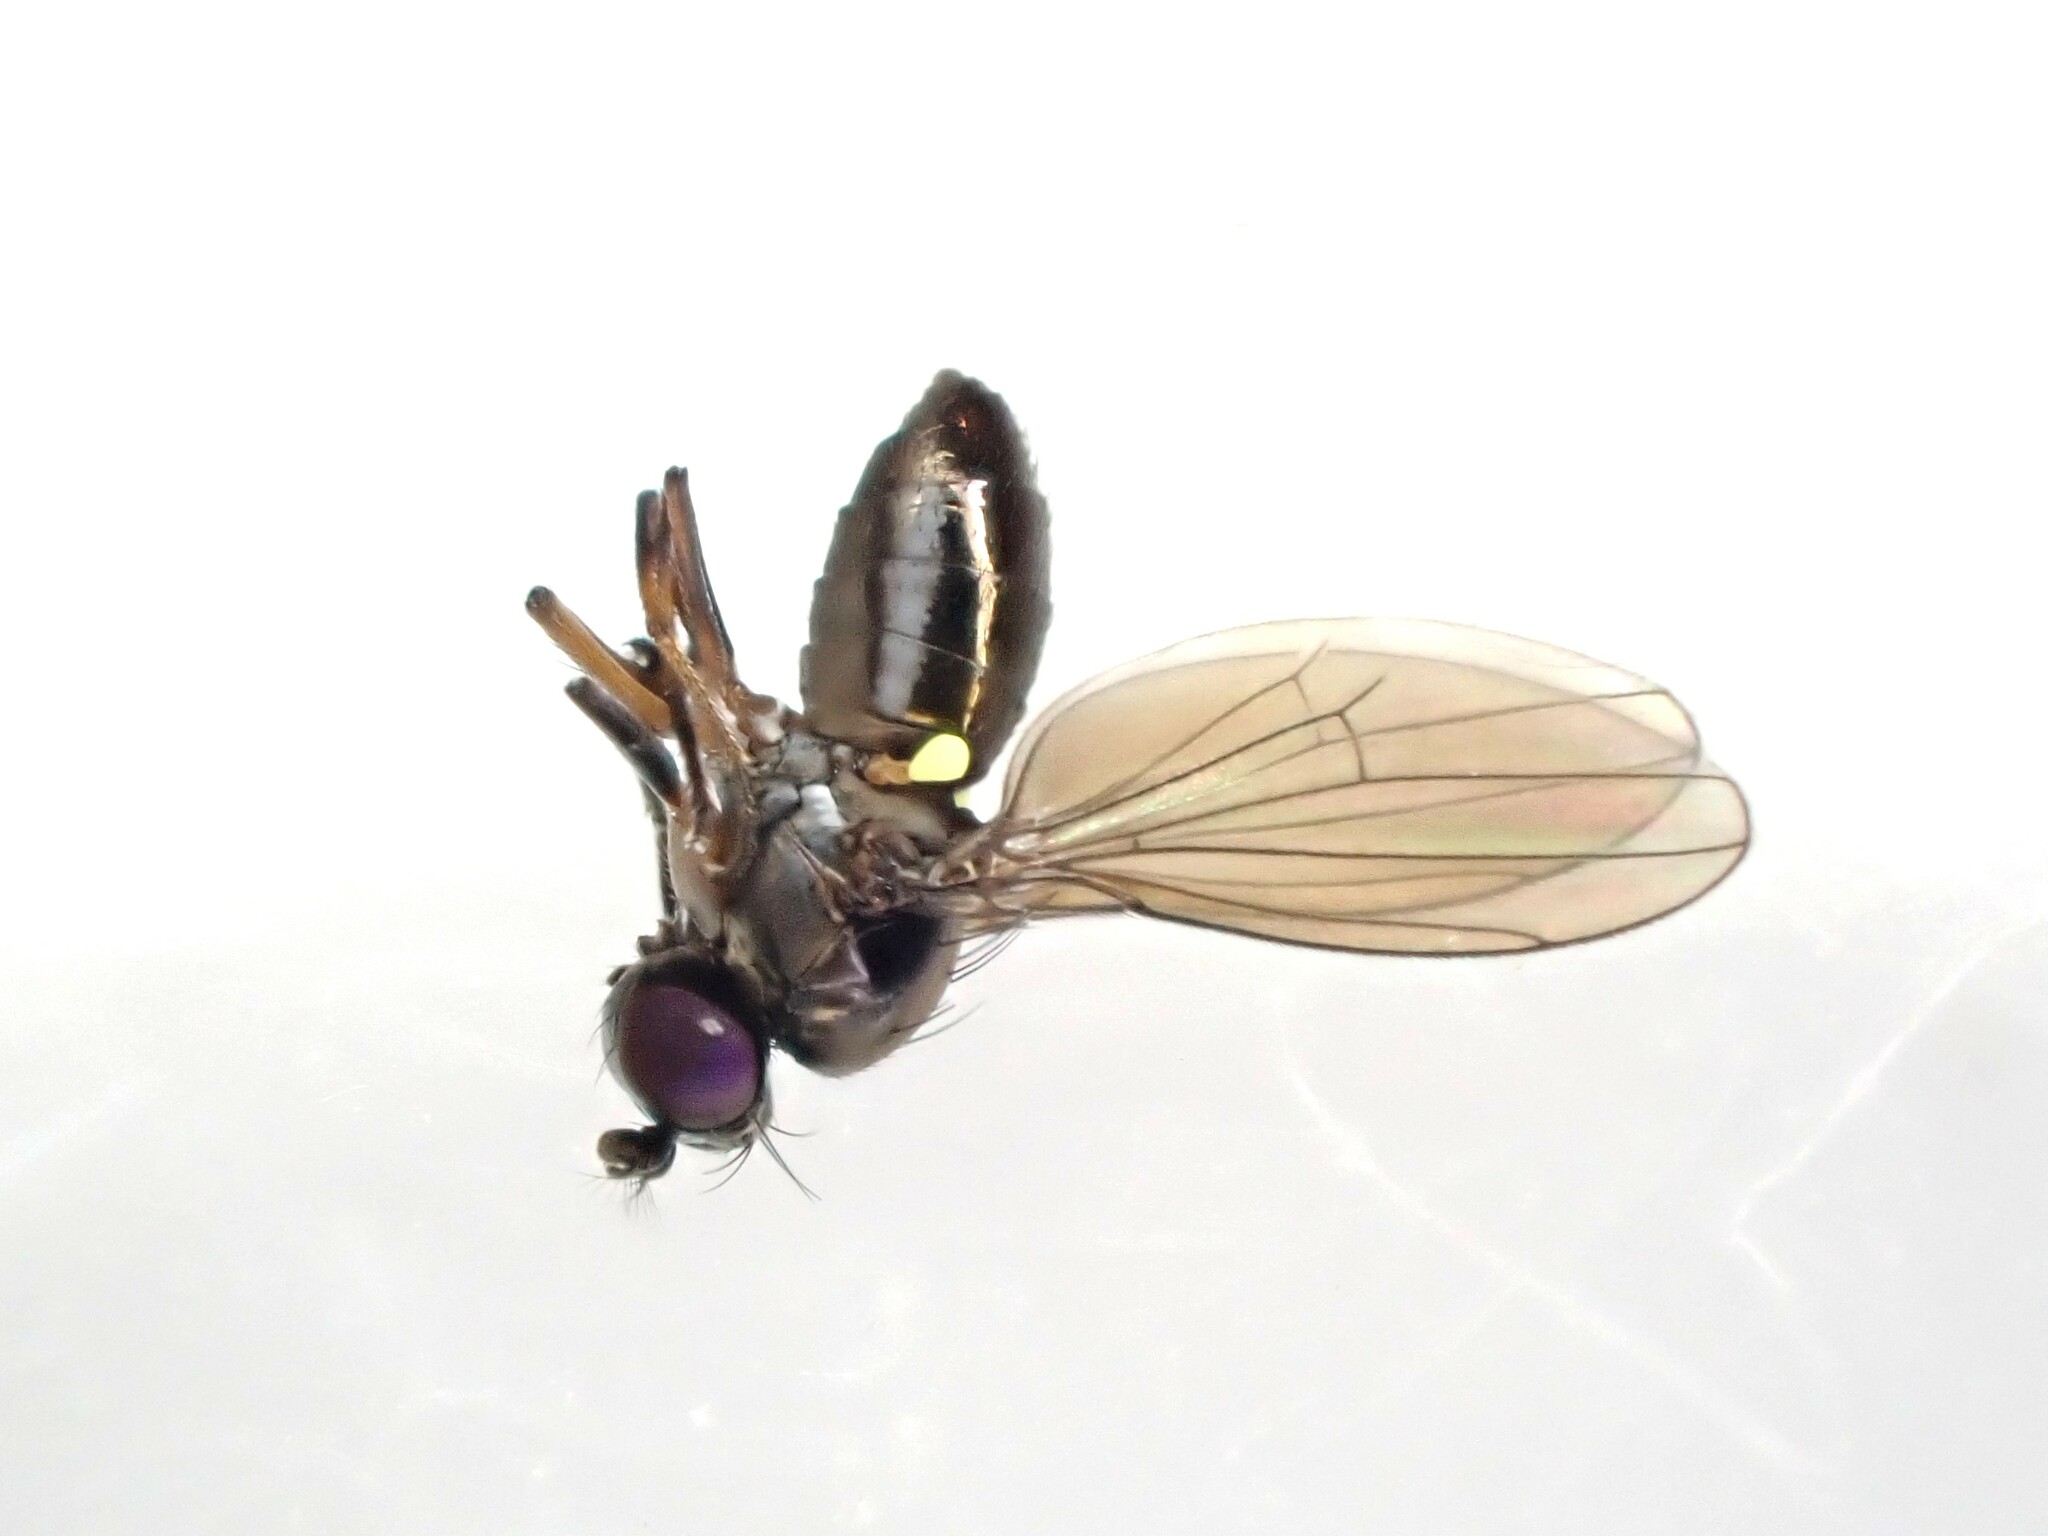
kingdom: Animalia
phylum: Arthropoda
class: Insecta
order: Diptera
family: Ephydridae
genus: Hydrellia
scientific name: Hydrellia tritici
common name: Shore fly
